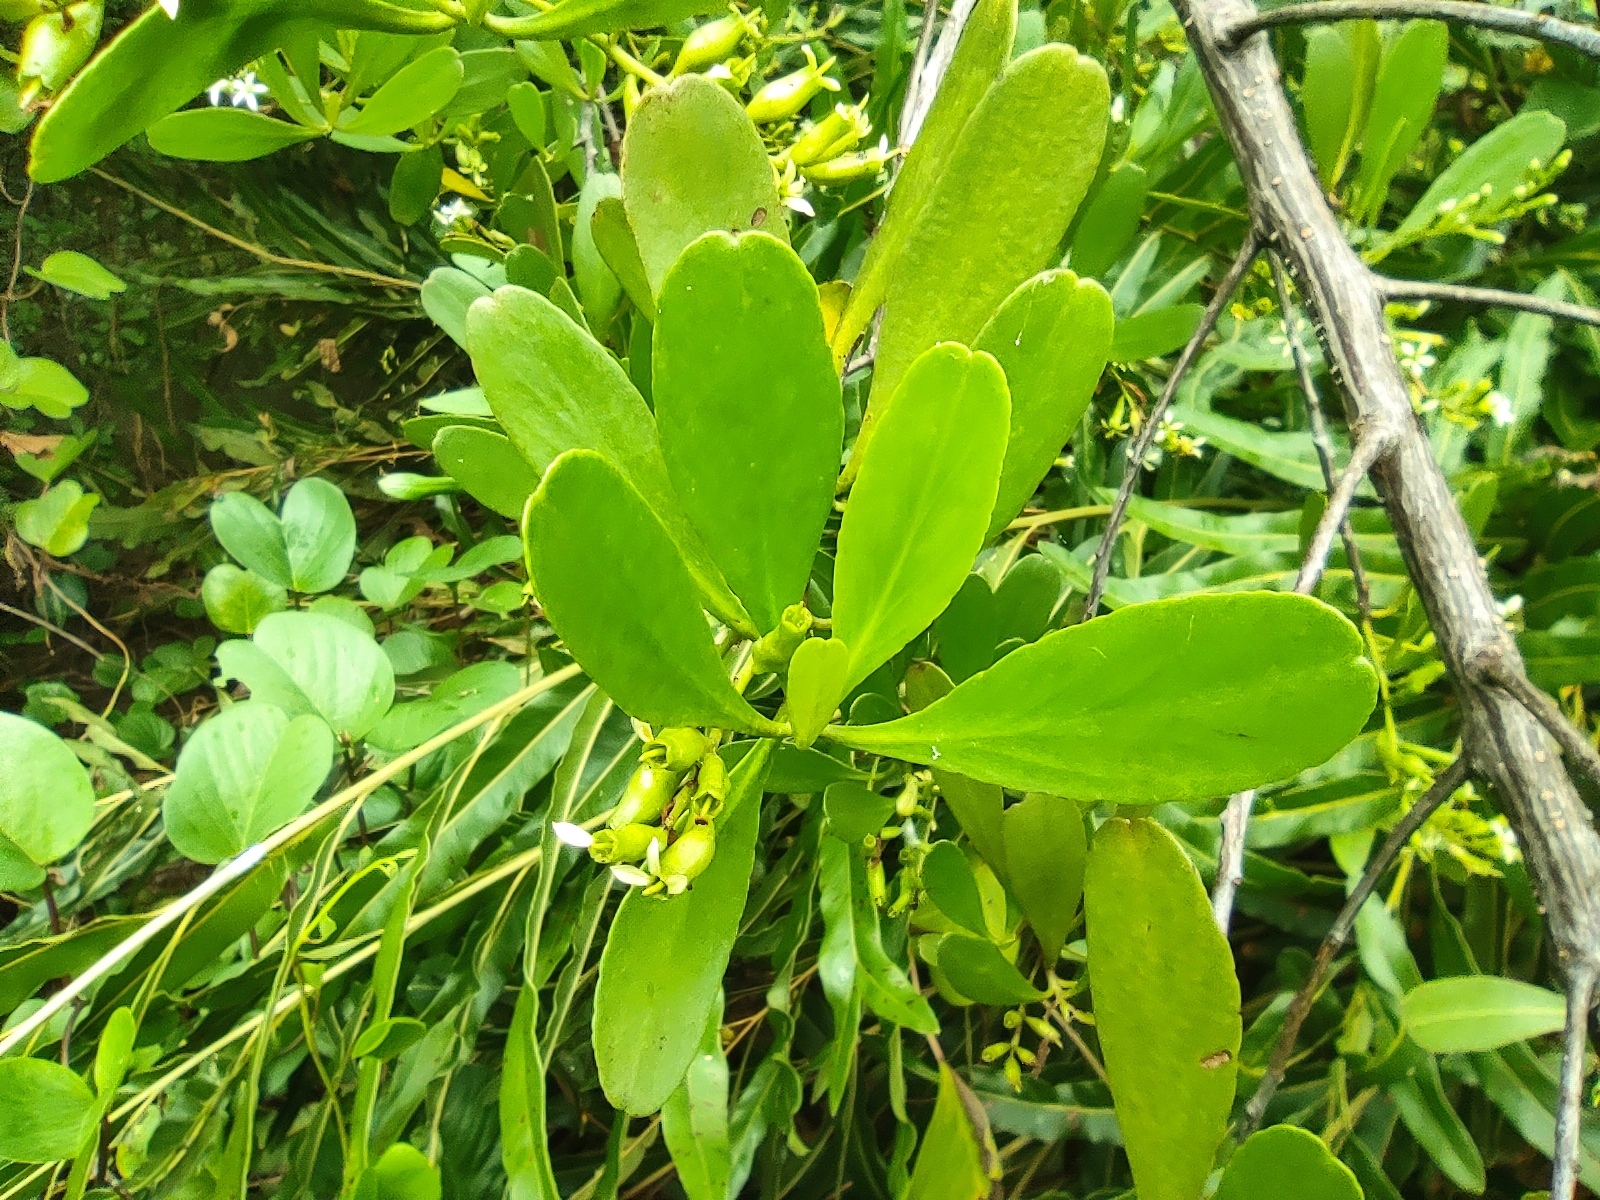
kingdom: Plantae
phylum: Tracheophyta
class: Magnoliopsida
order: Myrtales
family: Combretaceae
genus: Lumnitzera
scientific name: Lumnitzera racemosa
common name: White-flowered black mangrove
